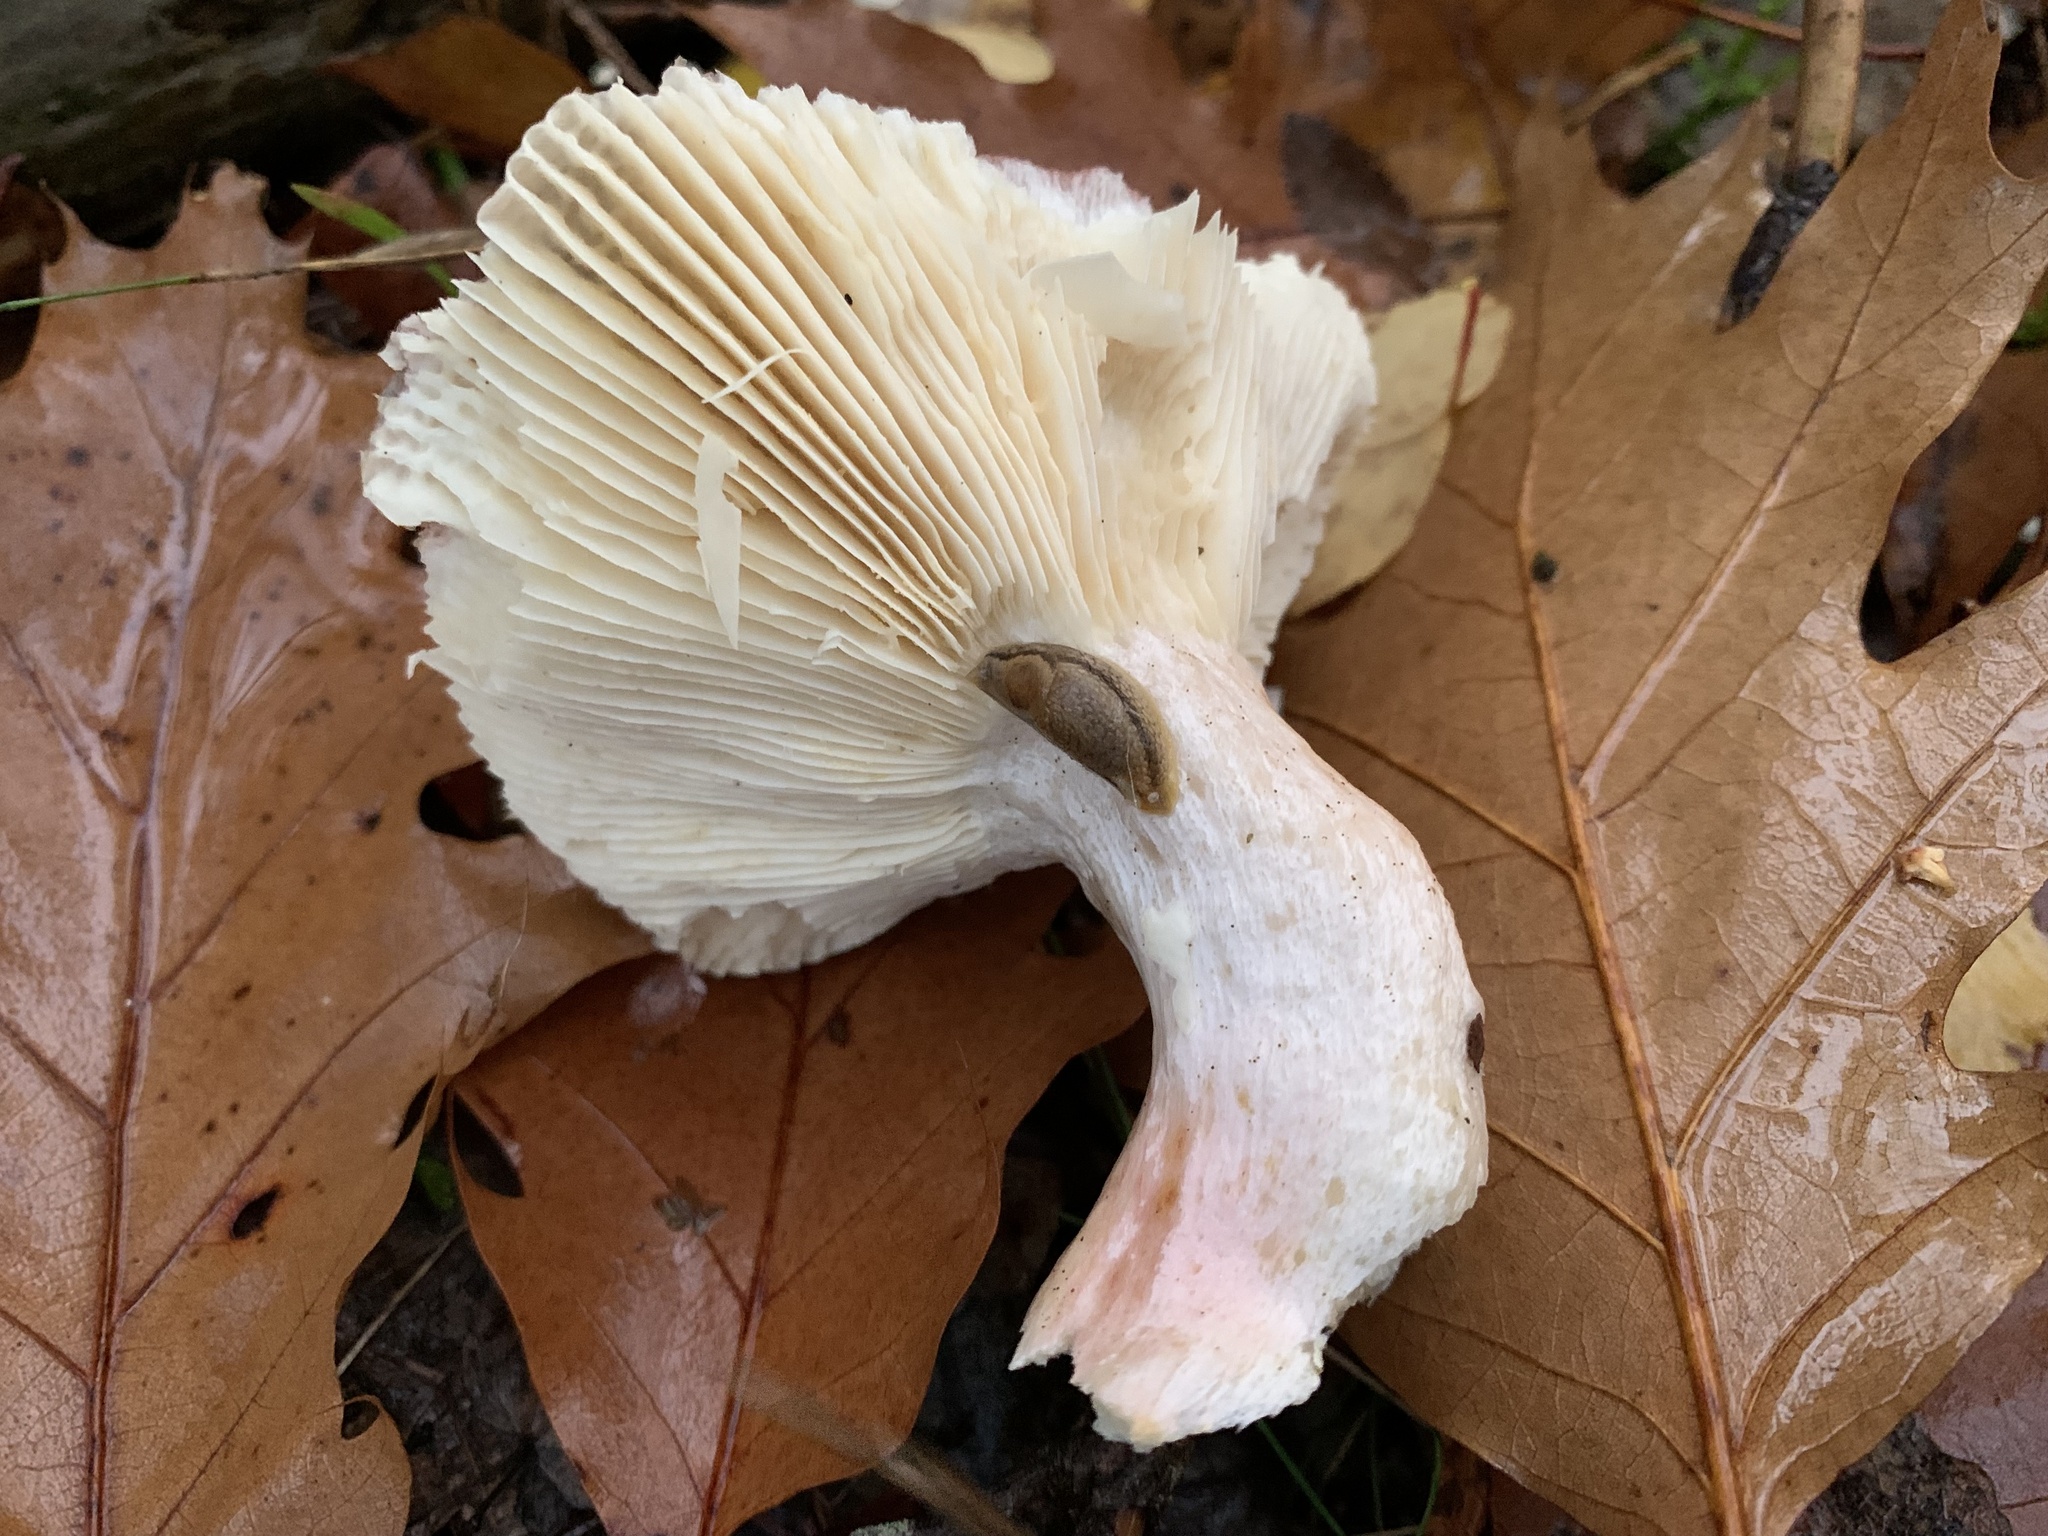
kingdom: Fungi
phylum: Basidiomycota
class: Agaricomycetes
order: Russulales
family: Russulaceae
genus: Russula
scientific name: Russula exalbicans
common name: Bleached brittlegill
